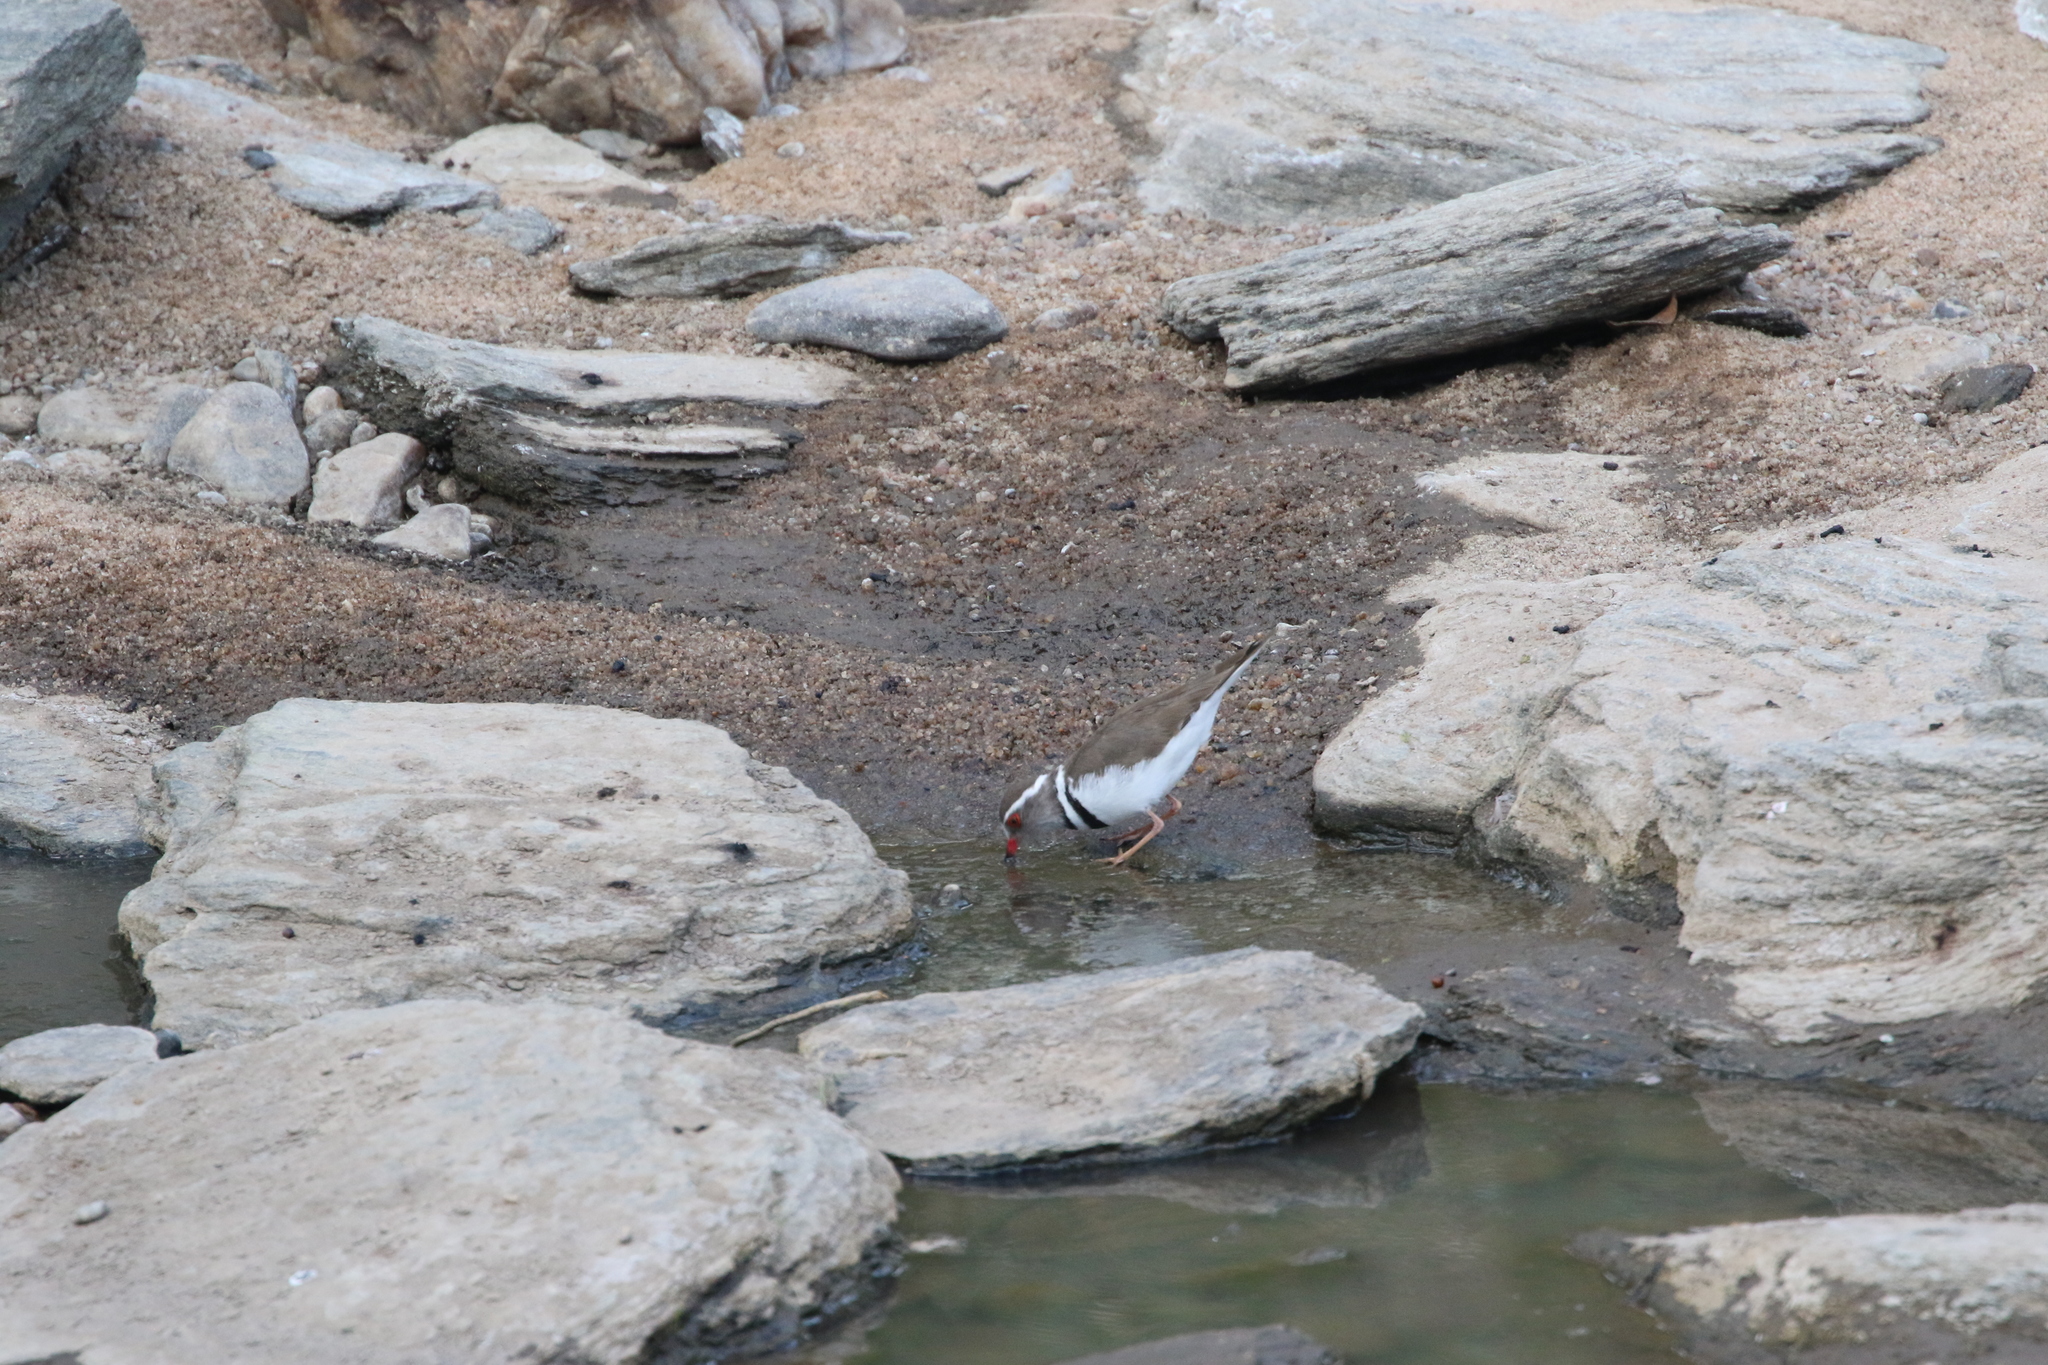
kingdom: Animalia
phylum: Chordata
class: Aves
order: Charadriiformes
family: Charadriidae
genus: Charadrius
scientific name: Charadrius tricollaris
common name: Three-banded plover
